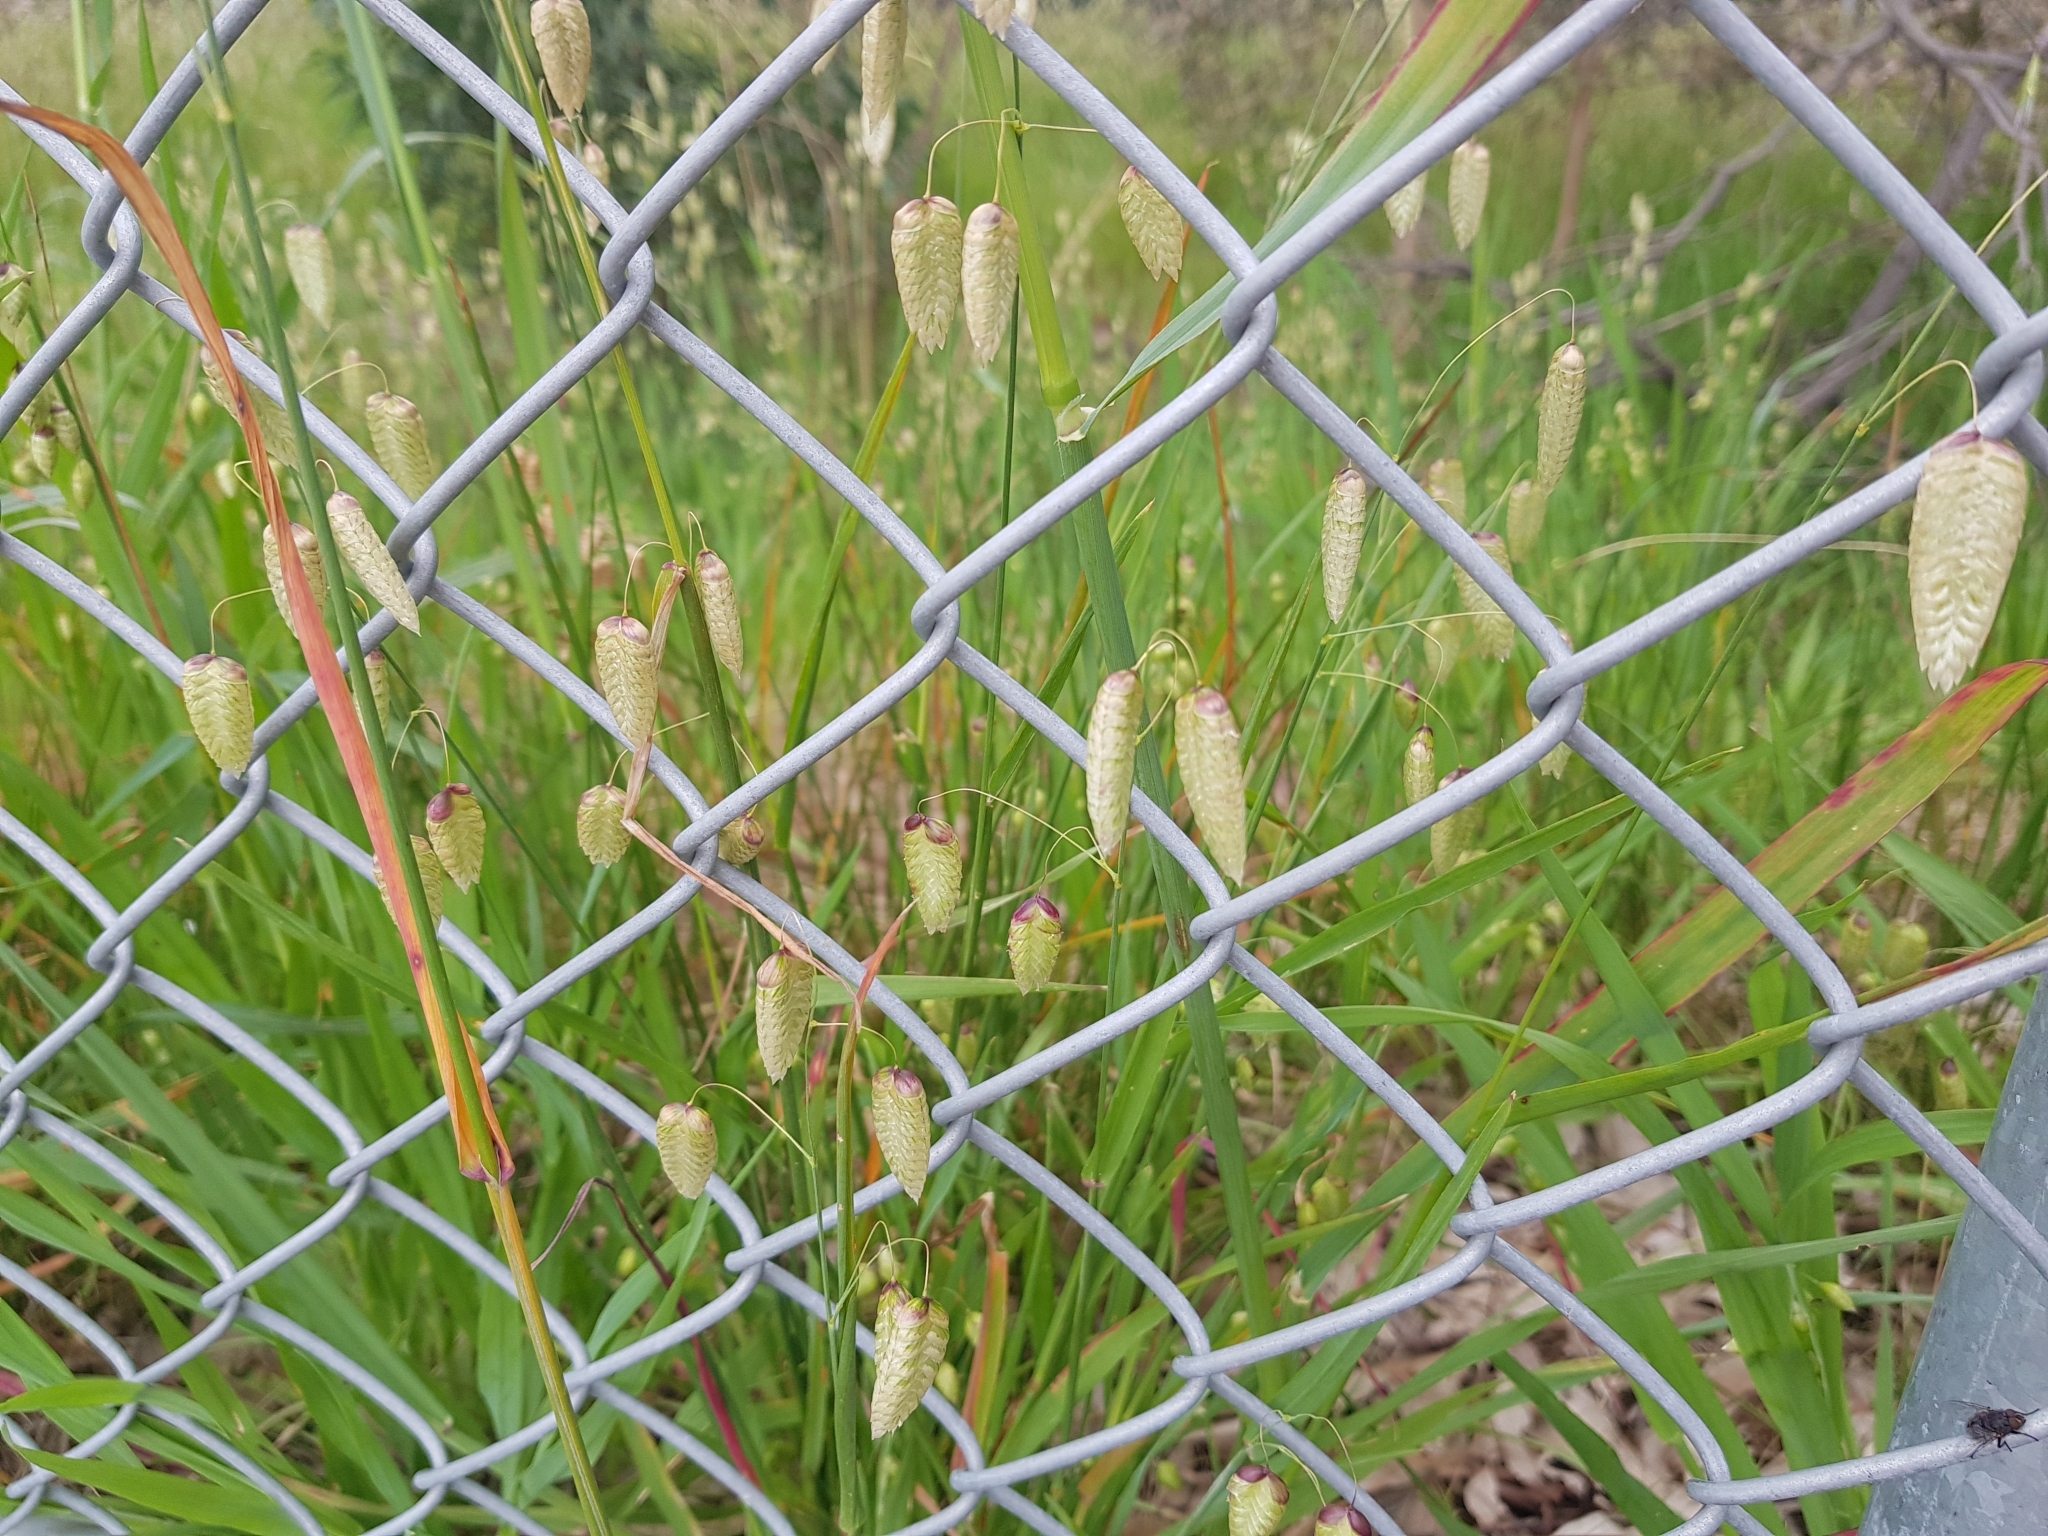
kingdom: Plantae
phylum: Tracheophyta
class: Liliopsida
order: Poales
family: Poaceae
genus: Briza
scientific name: Briza maxima
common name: Big quakinggrass
